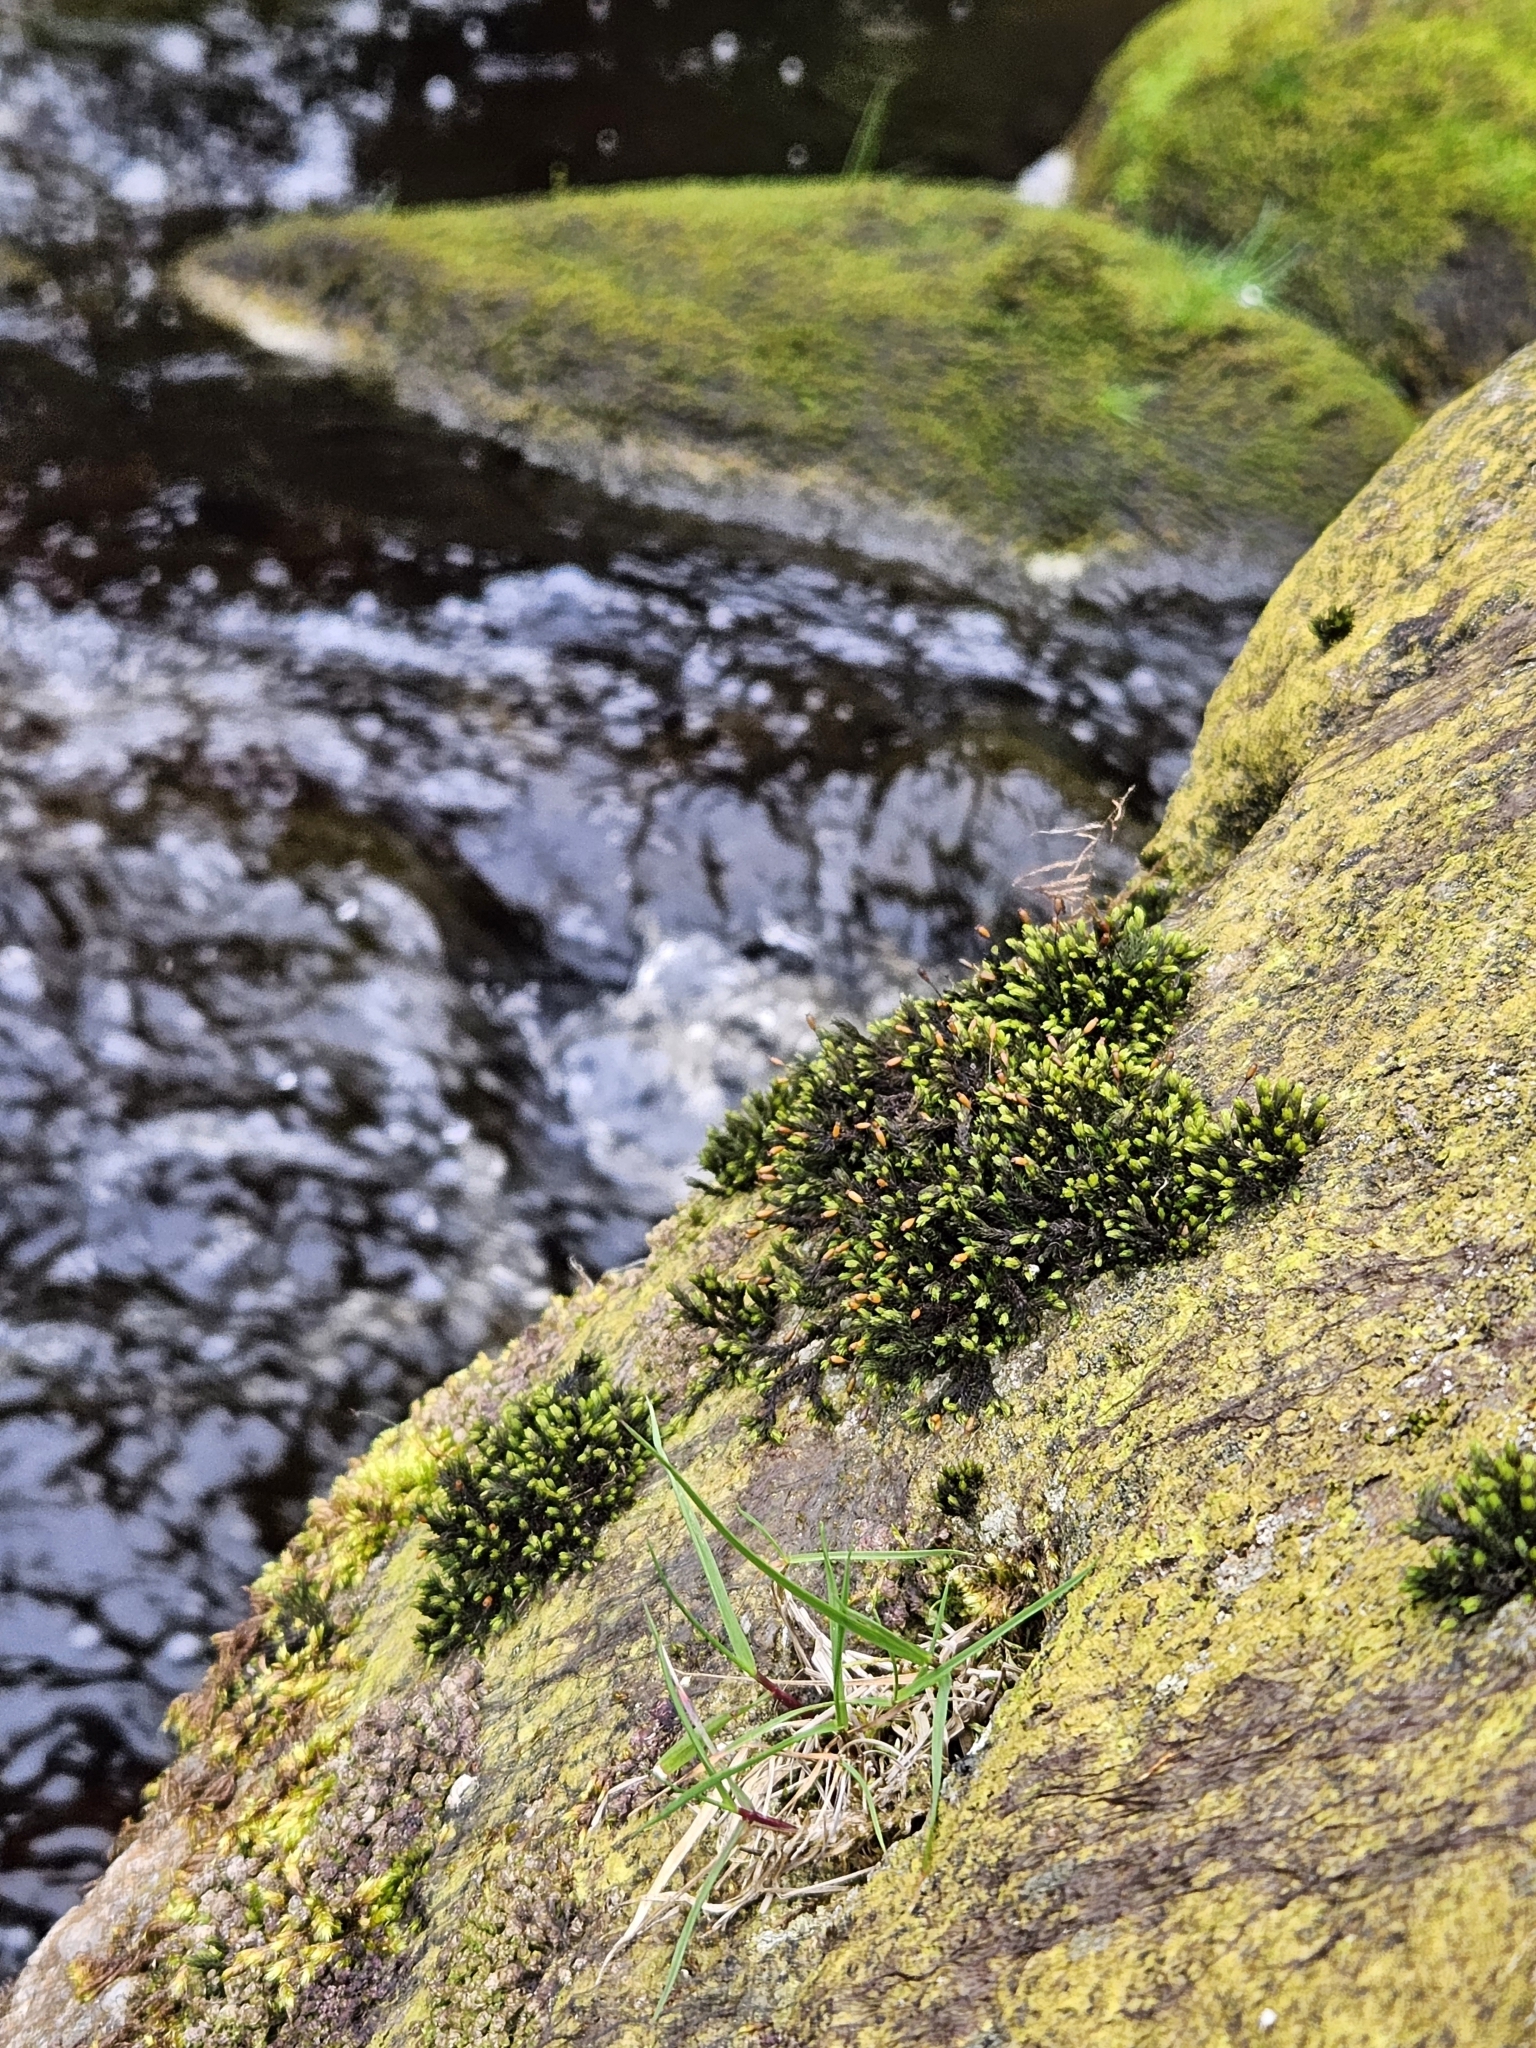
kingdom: Plantae
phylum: Bryophyta
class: Bryopsida
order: Grimmiales
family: Grimmiaceae
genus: Codriophorus
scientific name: Codriophorus acicularis
